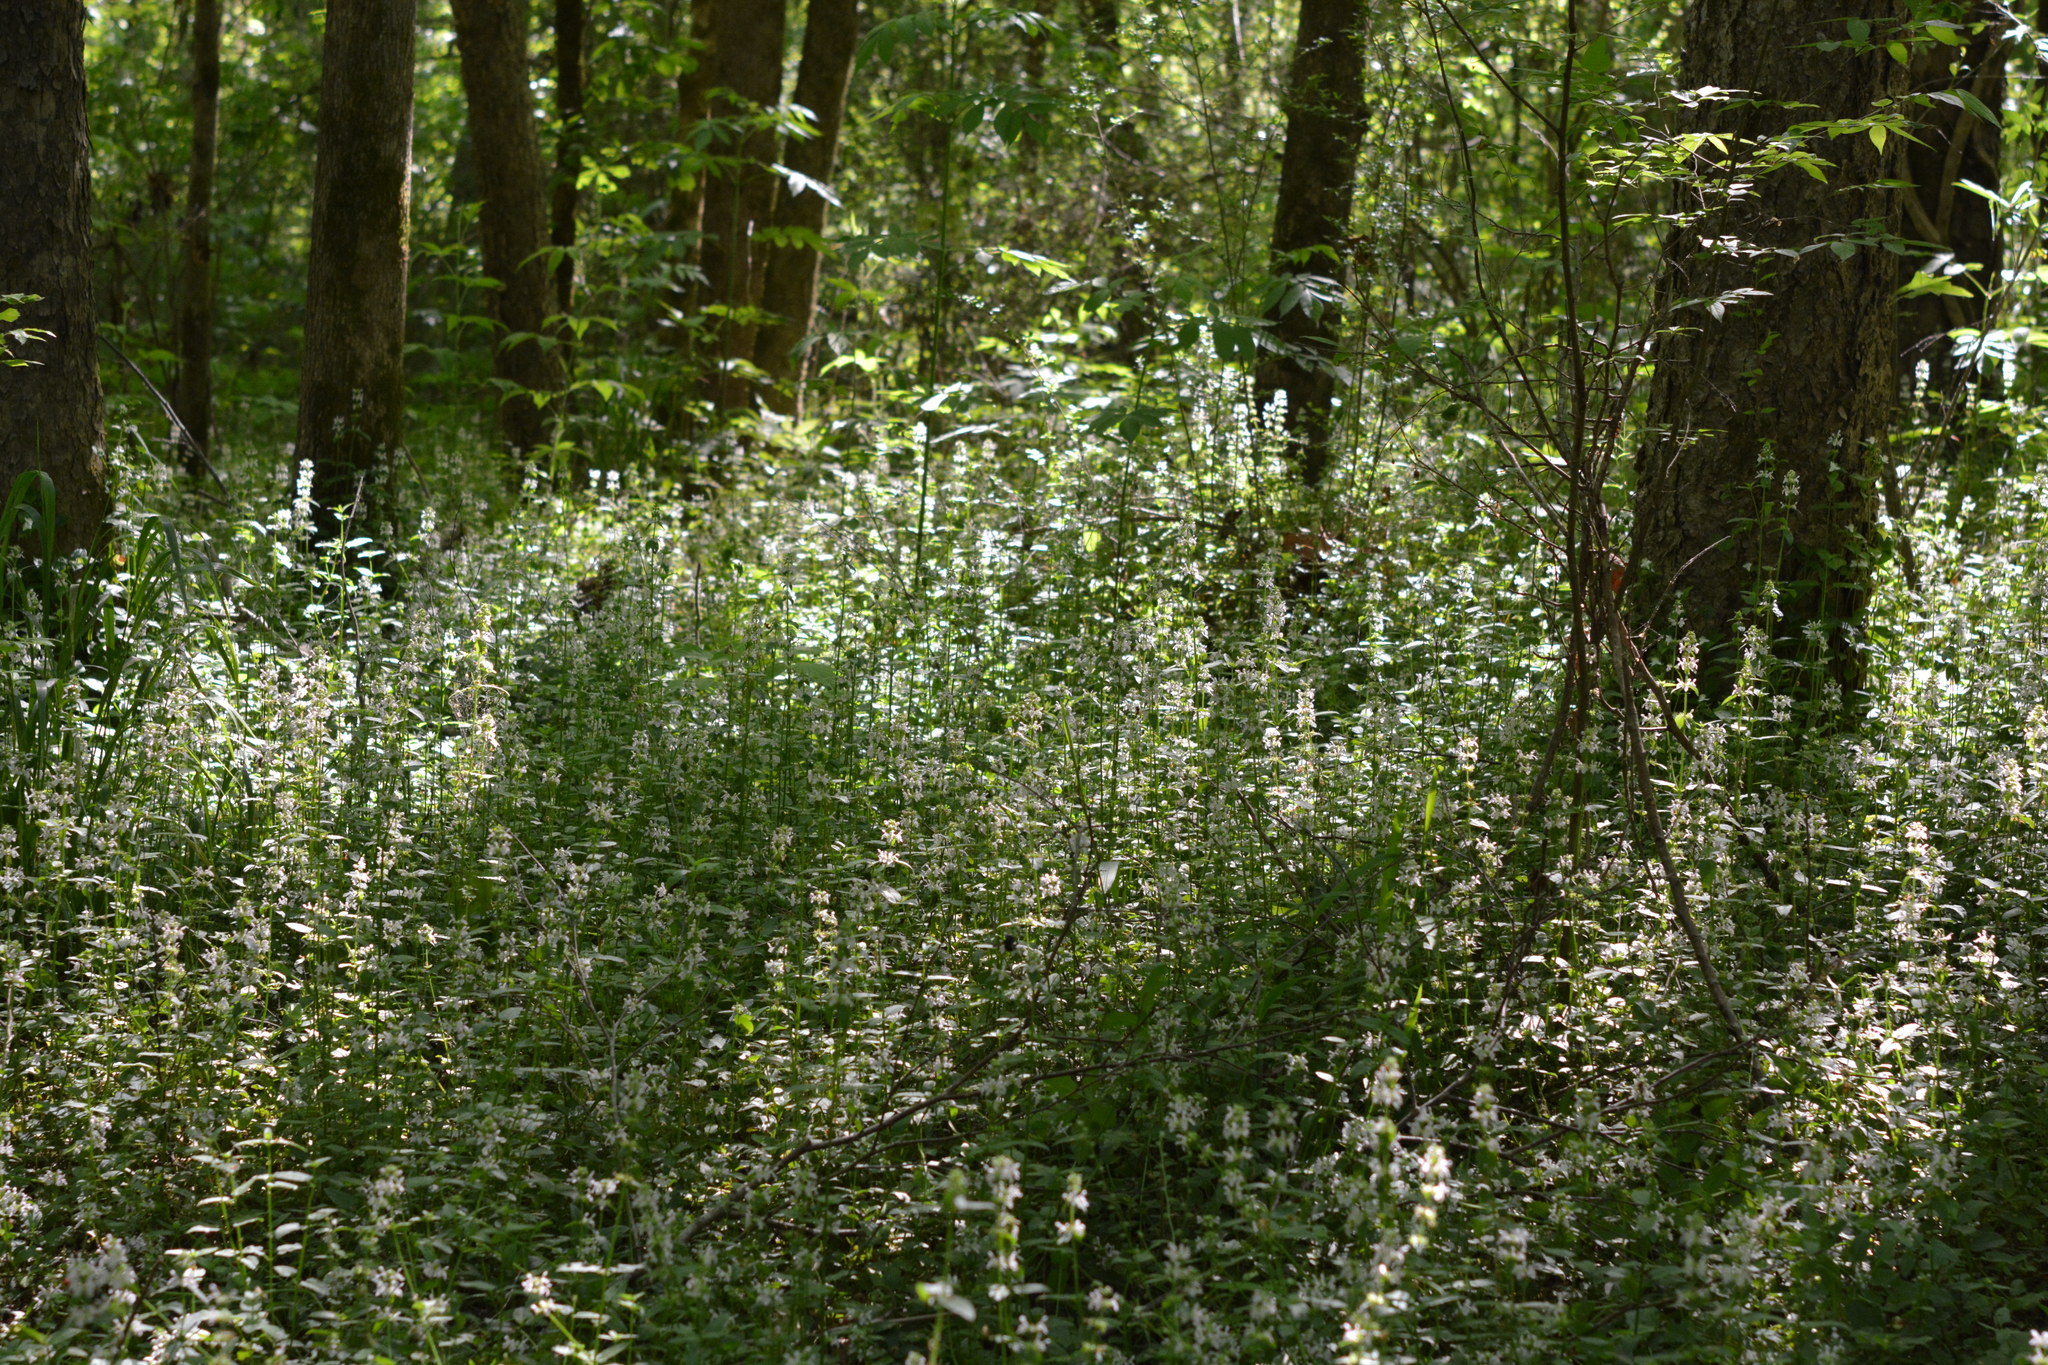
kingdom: Plantae
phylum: Tracheophyta
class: Magnoliopsida
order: Lamiales
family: Lamiaceae
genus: Stachys
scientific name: Stachys floridana
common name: Florida betony
